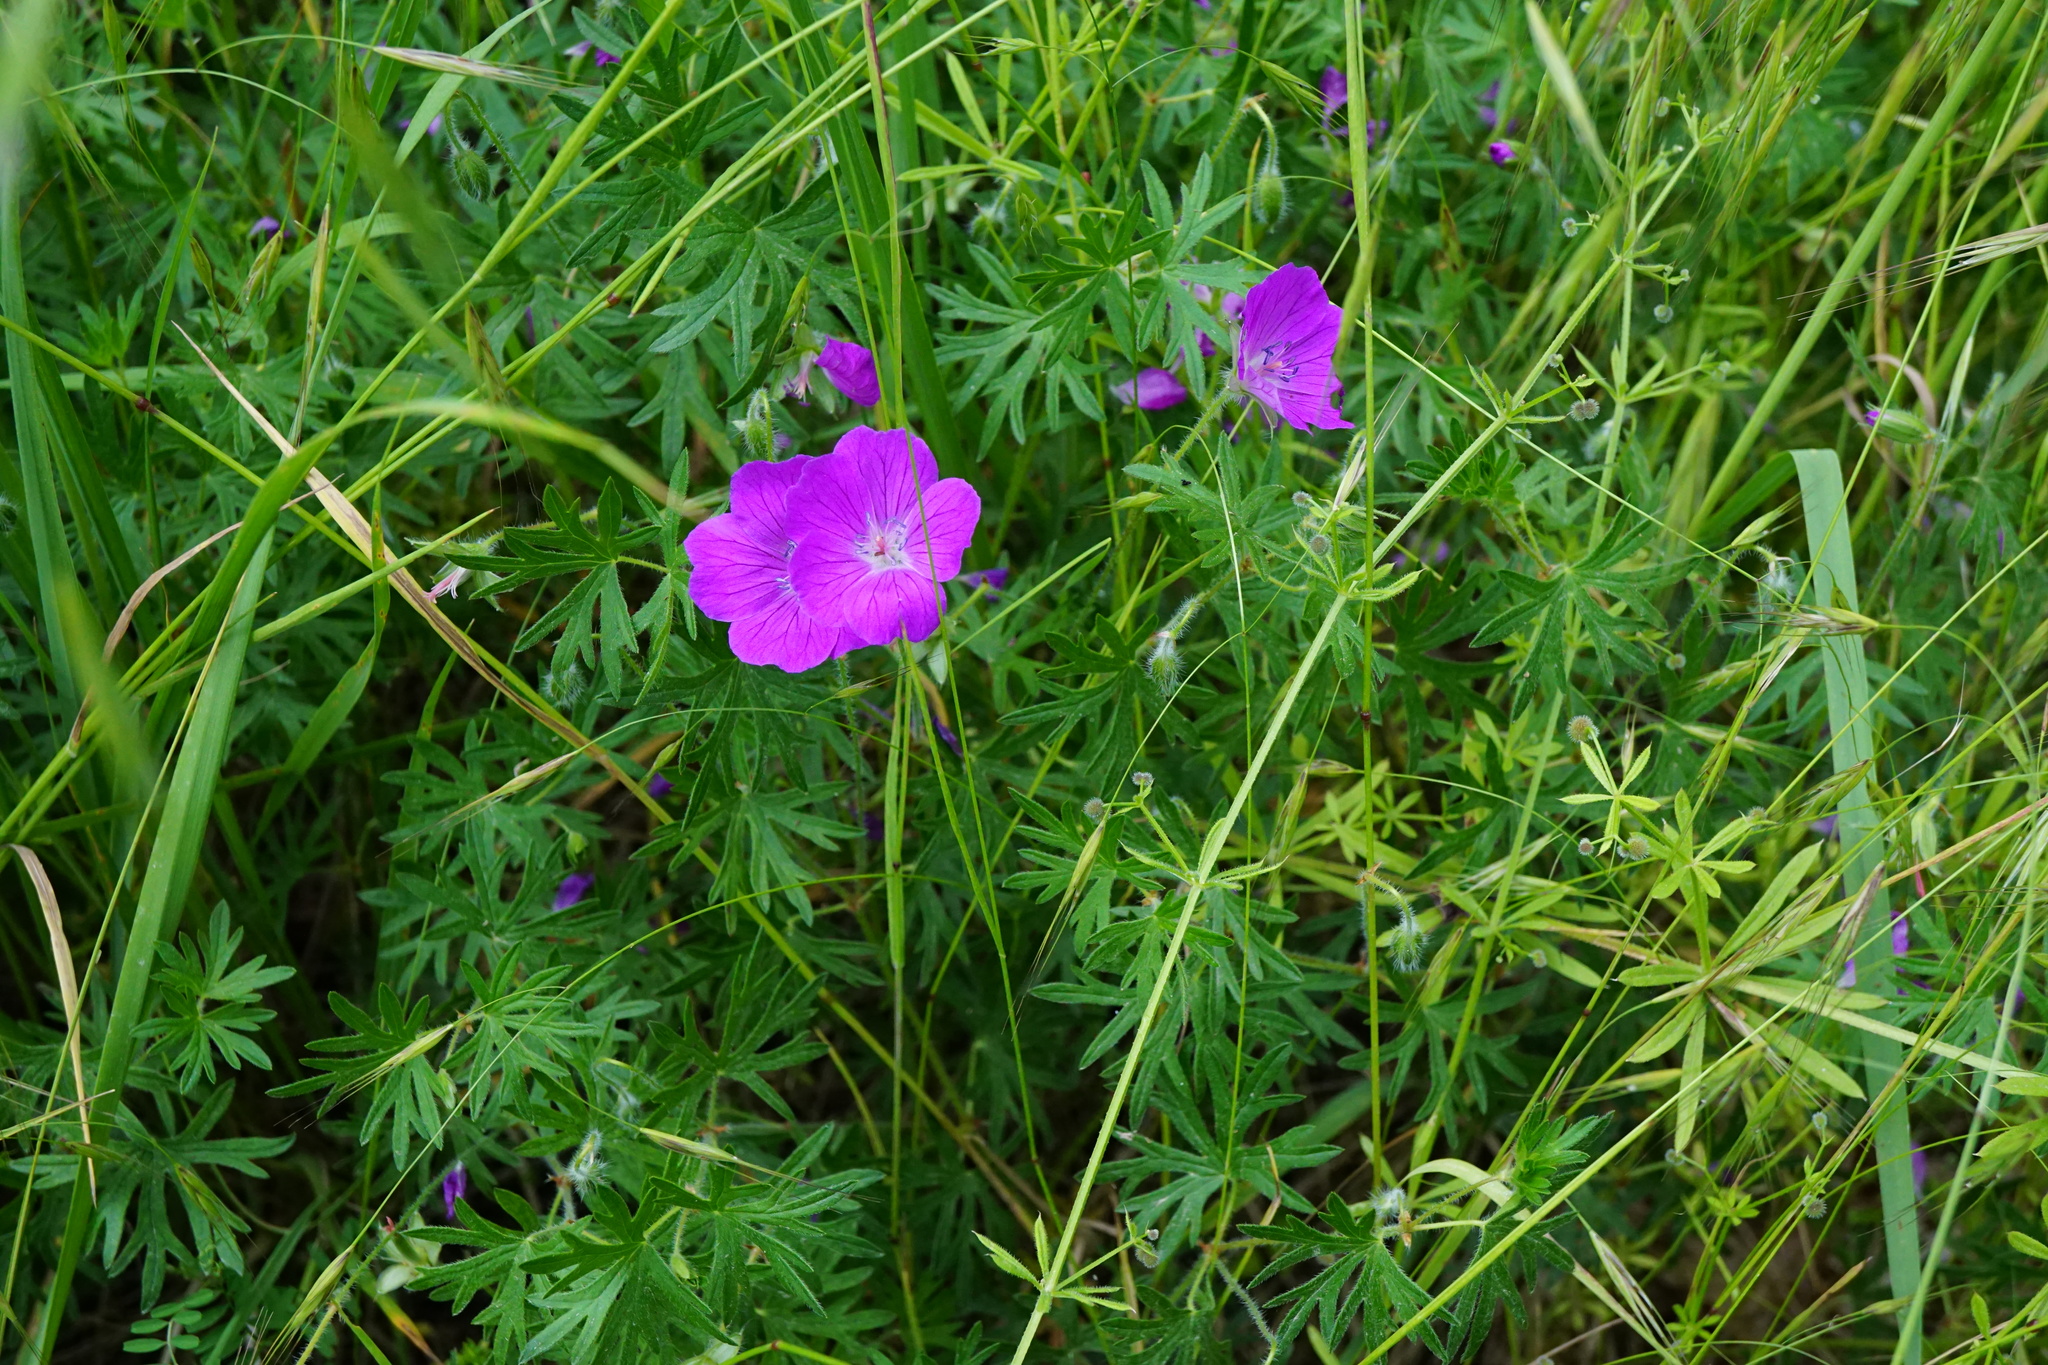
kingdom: Plantae
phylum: Tracheophyta
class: Magnoliopsida
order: Geraniales
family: Geraniaceae
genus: Geranium
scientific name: Geranium sanguineum
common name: Bloody crane's-bill
